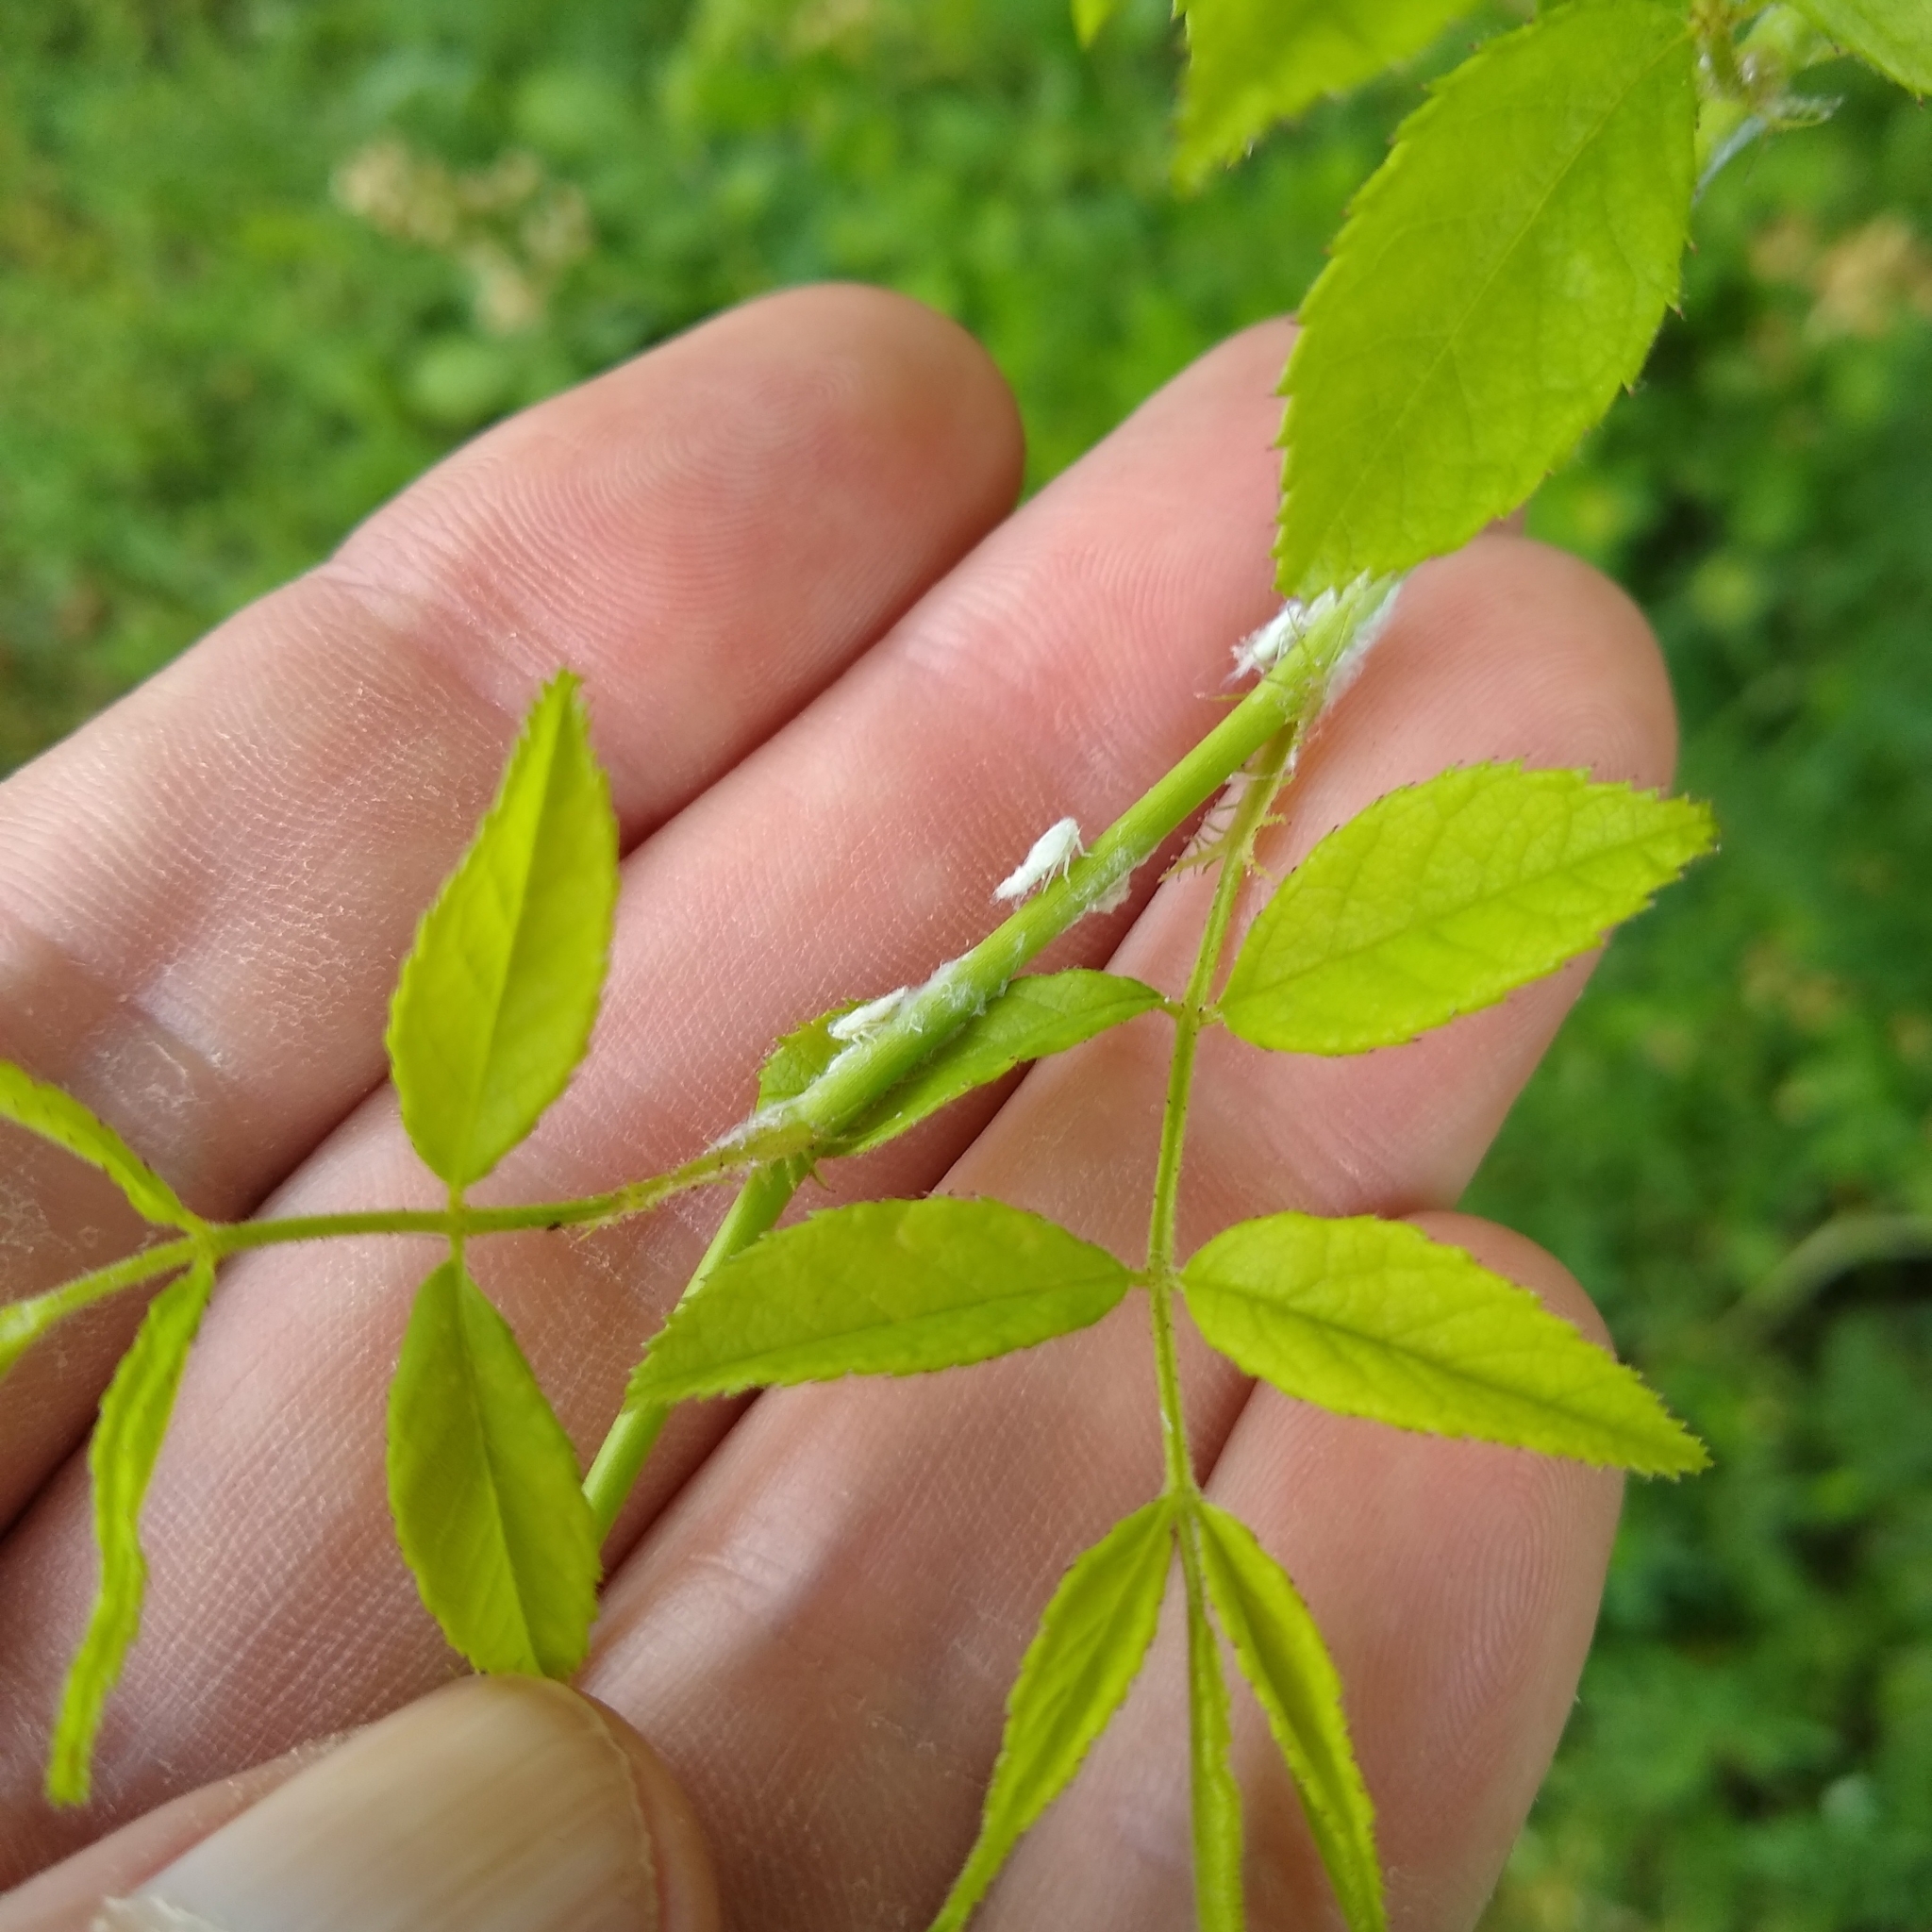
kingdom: Plantae
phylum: Tracheophyta
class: Magnoliopsida
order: Rosales
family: Rosaceae
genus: Rosa
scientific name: Rosa multiflora
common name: Multiflora rose
